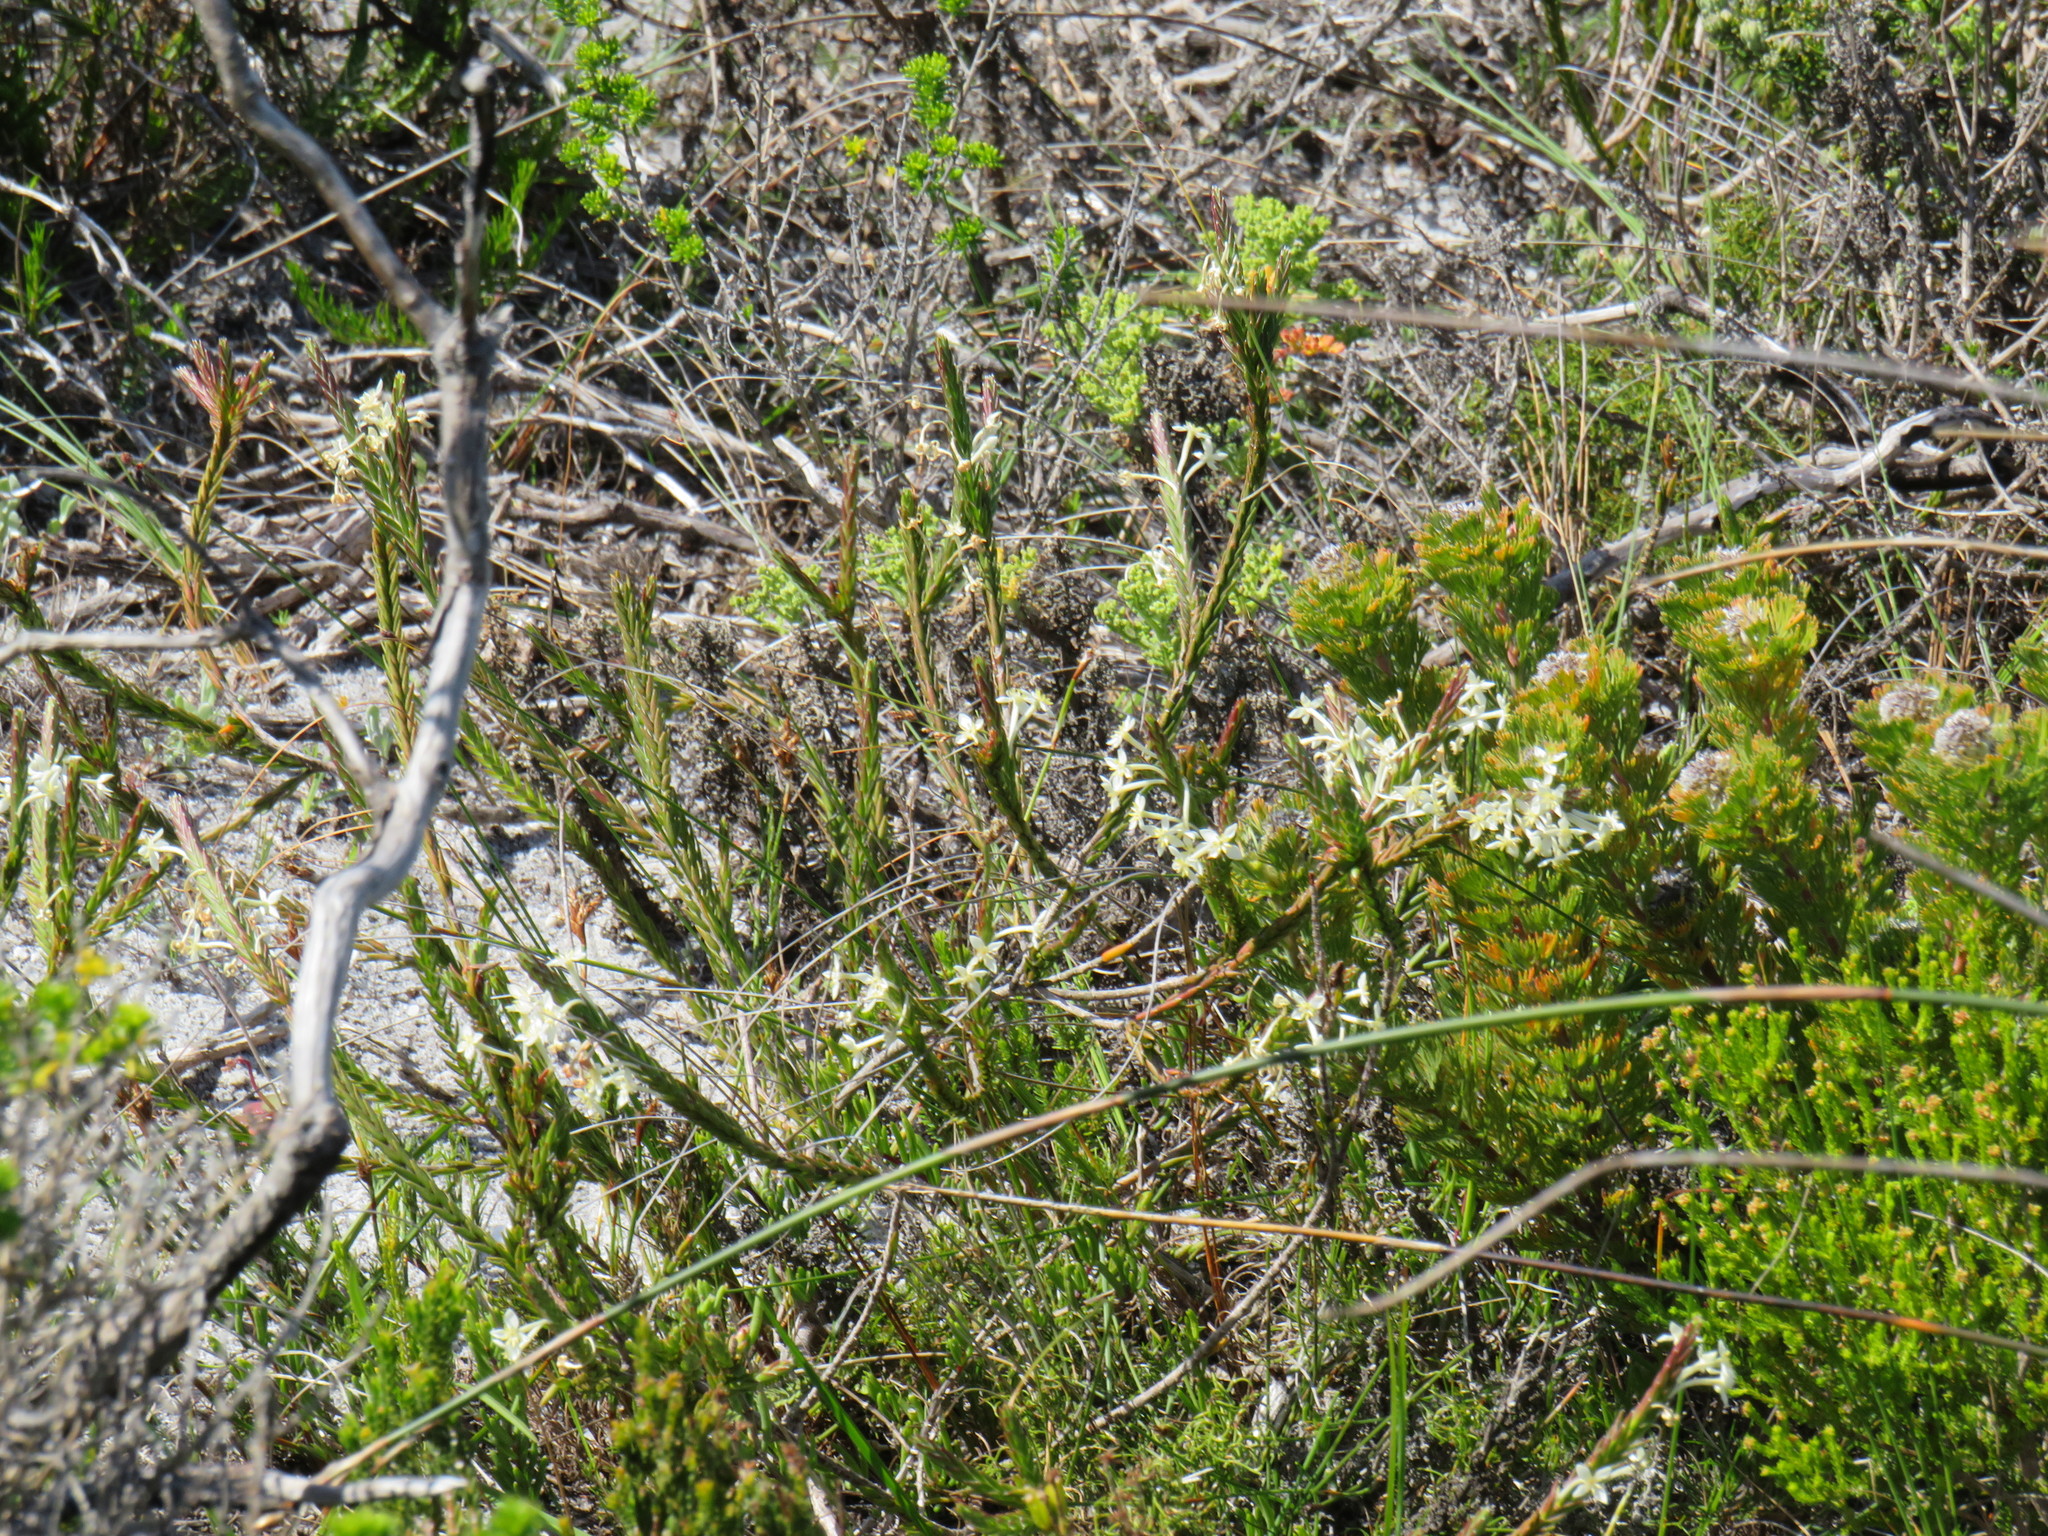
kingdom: Plantae
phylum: Tracheophyta
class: Magnoliopsida
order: Malvales
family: Thymelaeaceae
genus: Struthiola
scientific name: Struthiola ciliata
